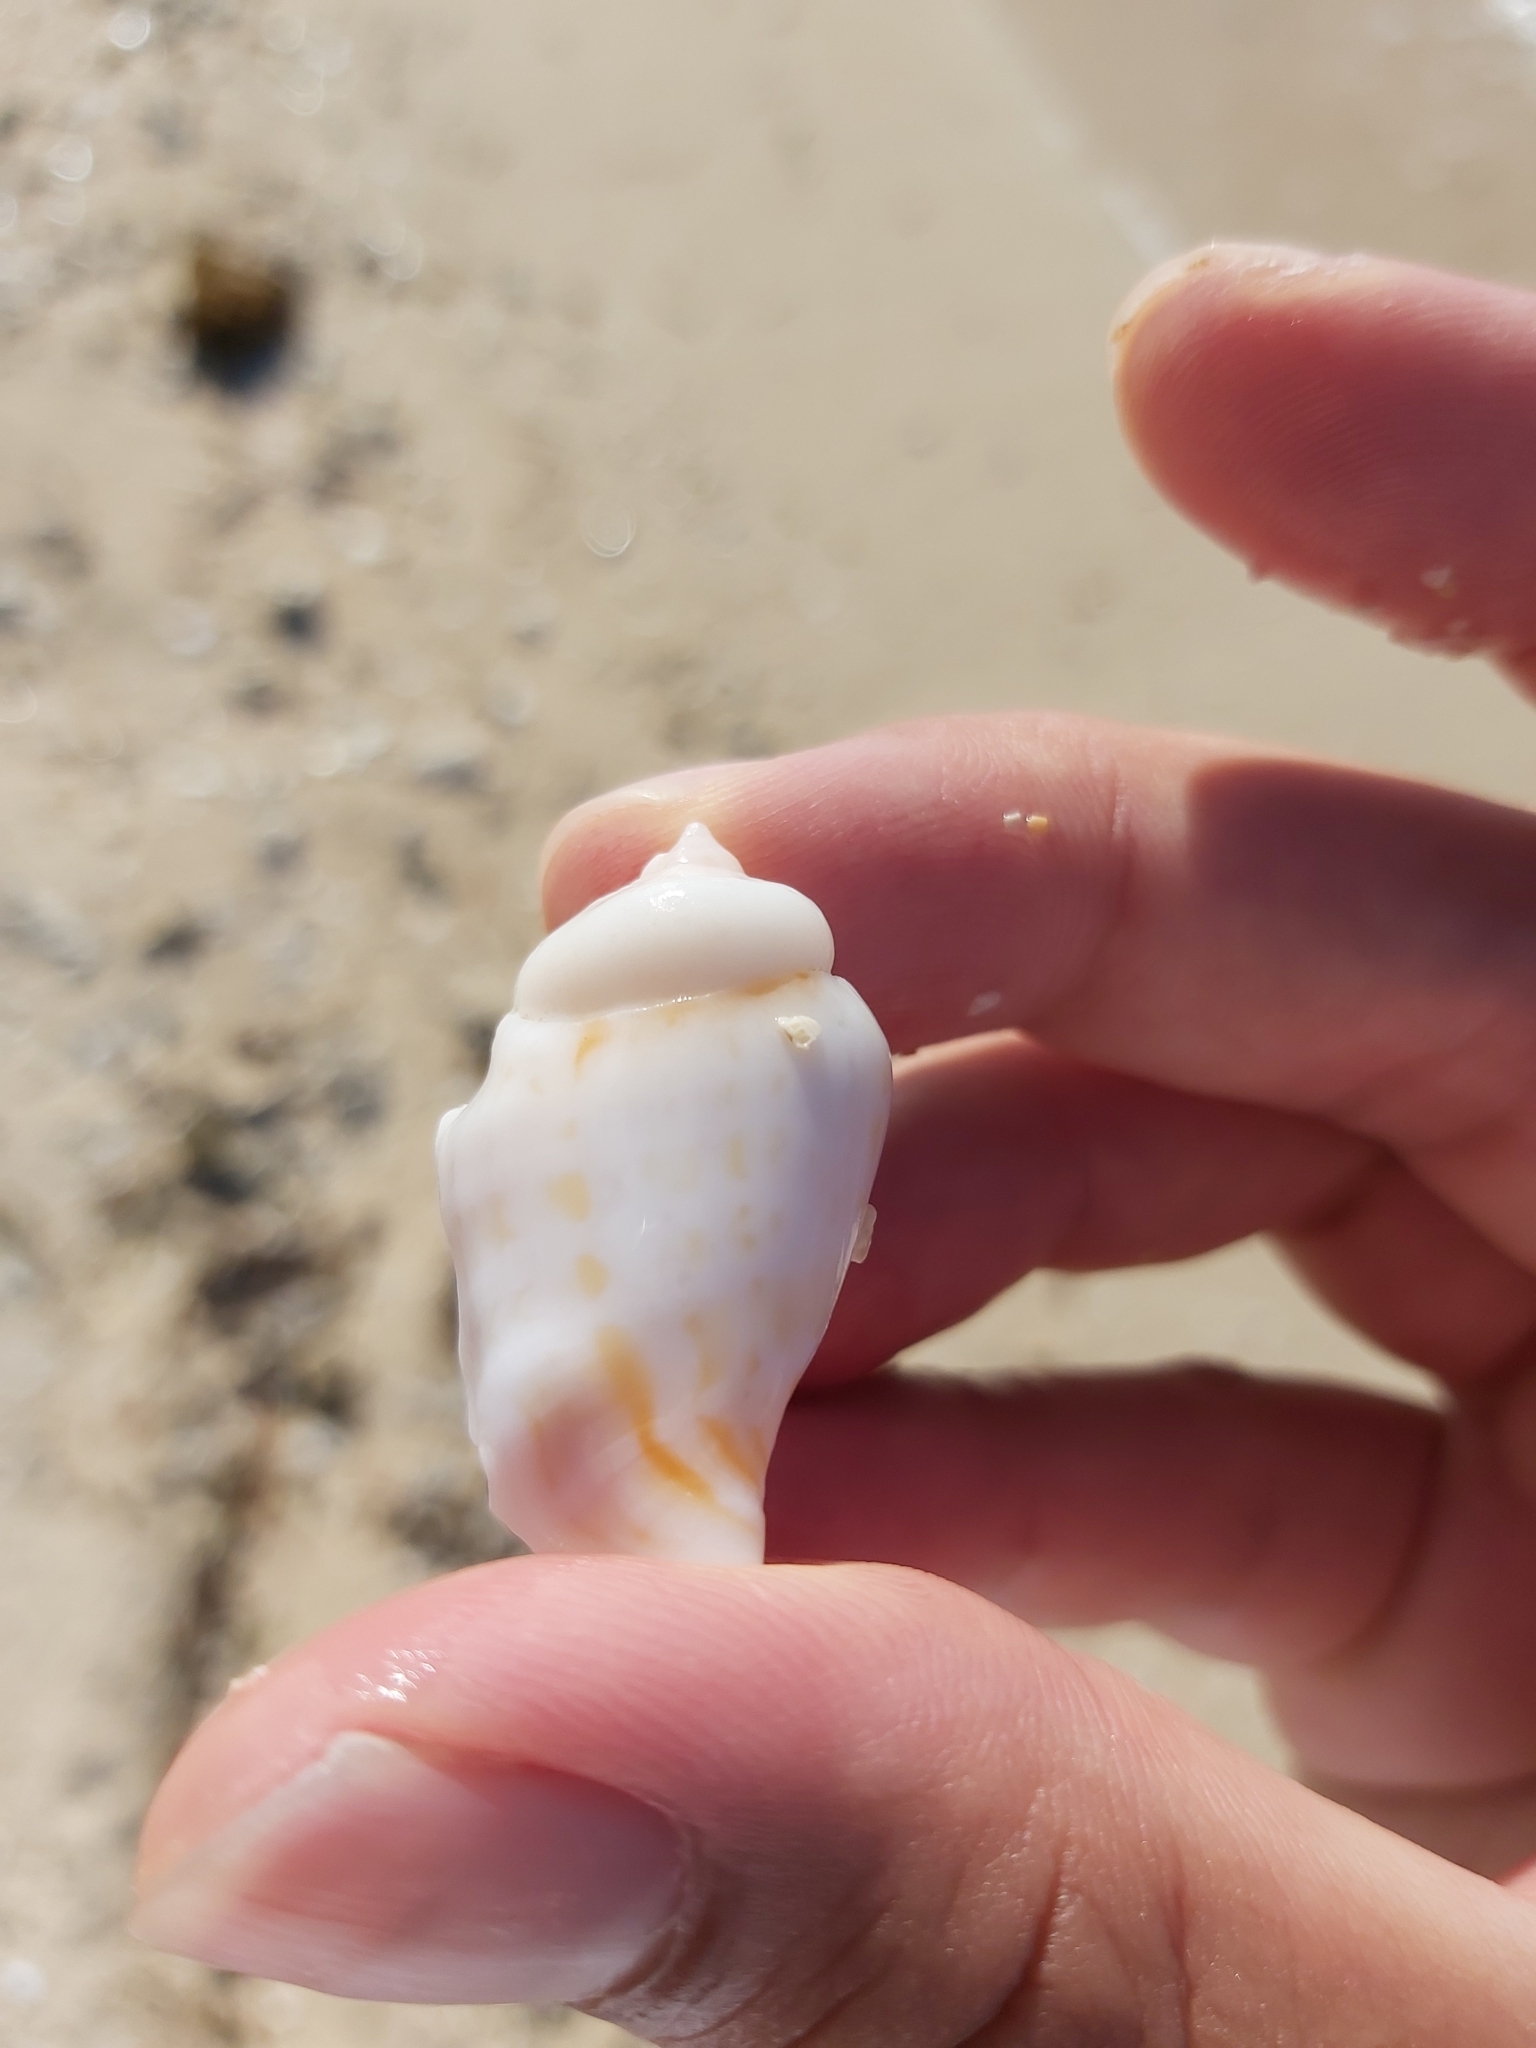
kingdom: Animalia
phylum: Mollusca
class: Gastropoda
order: Littorinimorpha
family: Strombidae
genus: Gibberulus
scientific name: Gibberulus gibberulus
